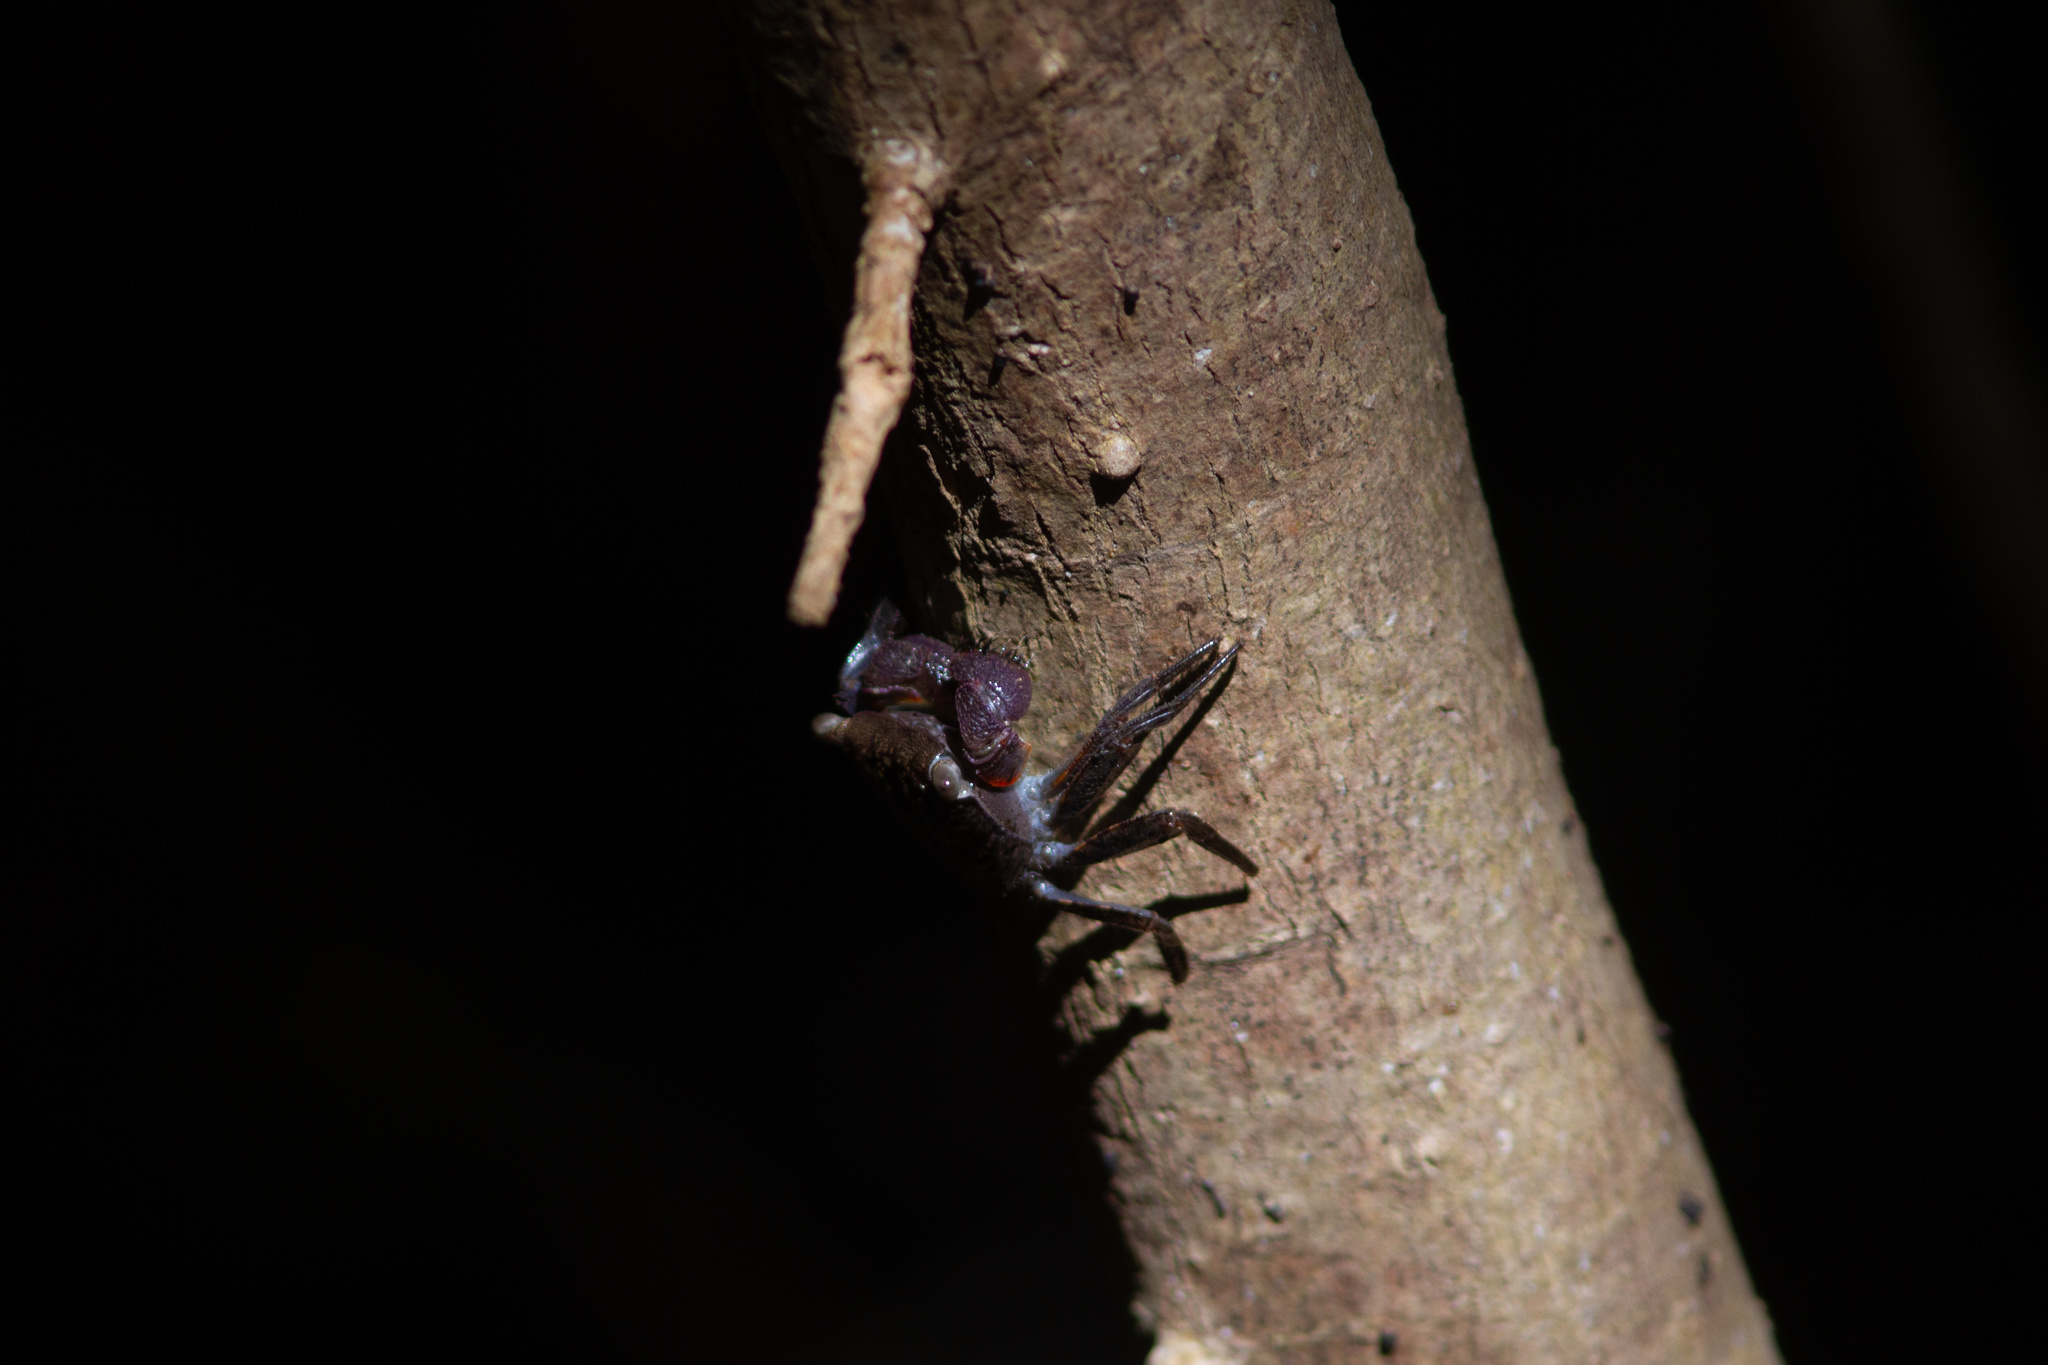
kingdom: Animalia
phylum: Arthropoda
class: Malacostraca
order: Decapoda
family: Sesarmidae
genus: Aratus
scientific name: Aratus pisonii
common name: Mangrove crab
